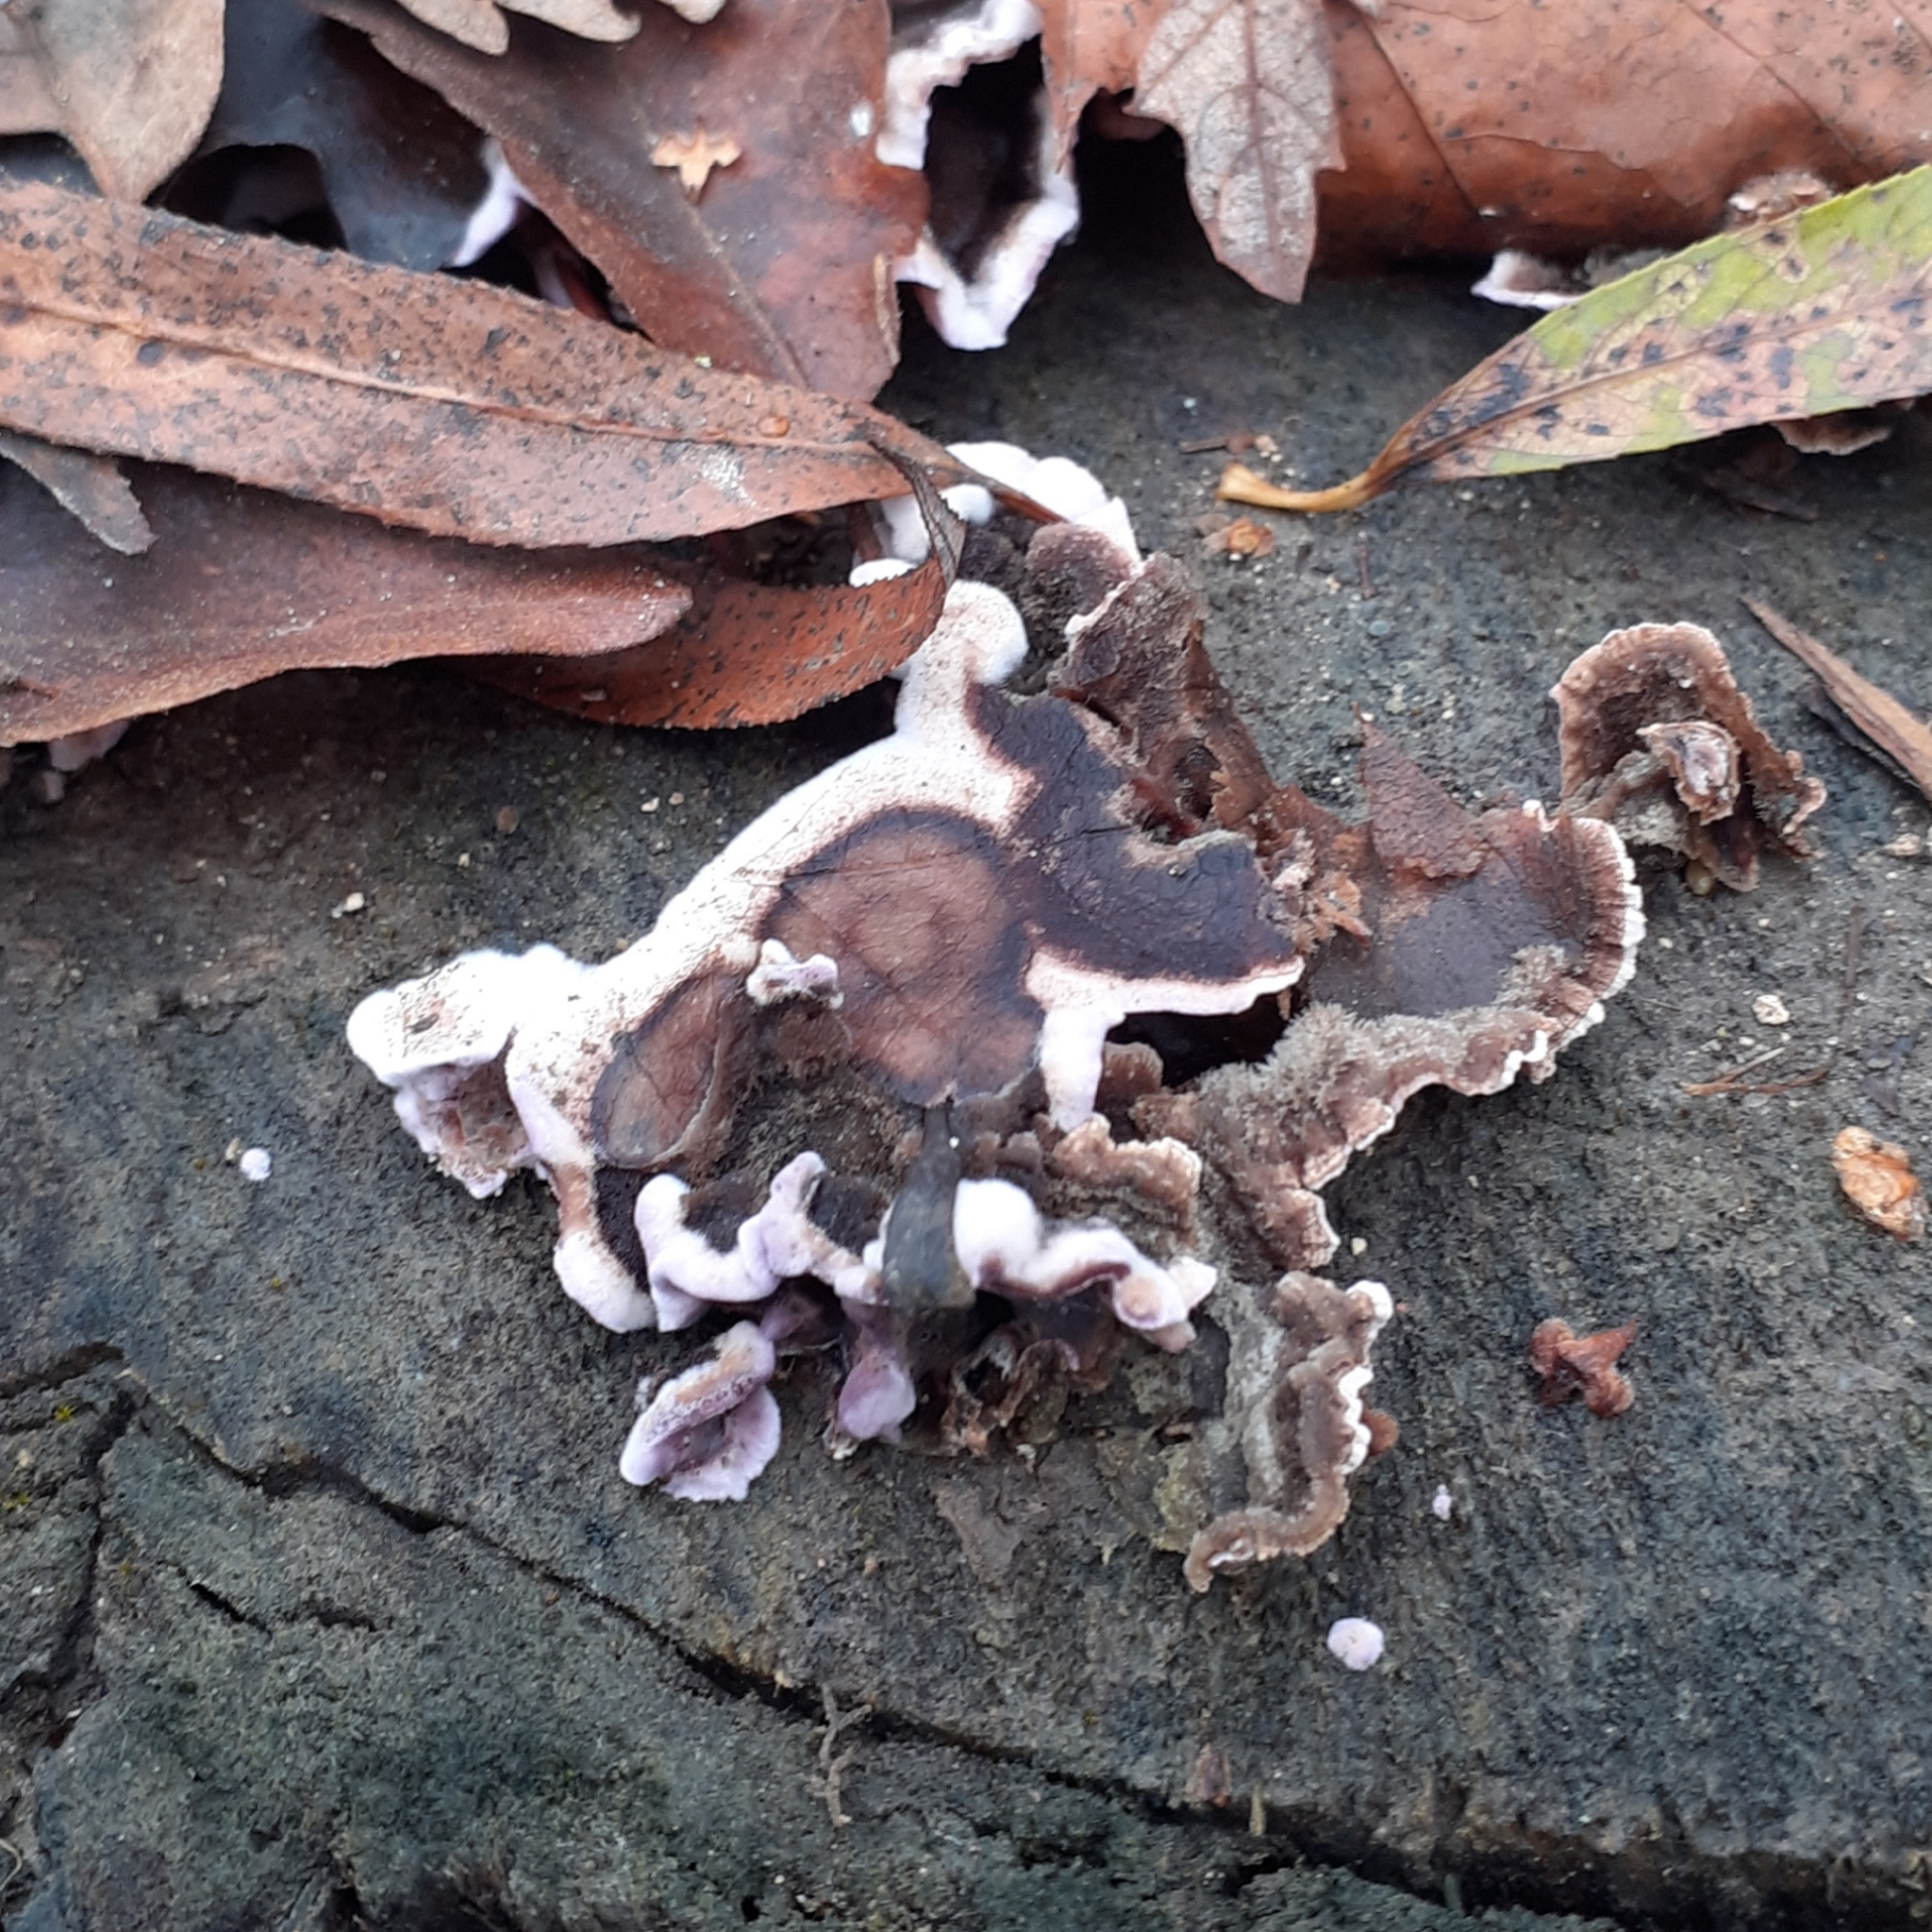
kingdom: Fungi
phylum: Basidiomycota
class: Agaricomycetes
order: Agaricales
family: Cyphellaceae
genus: Chondrostereum
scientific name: Chondrostereum purpureum
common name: Silver leaf disease
